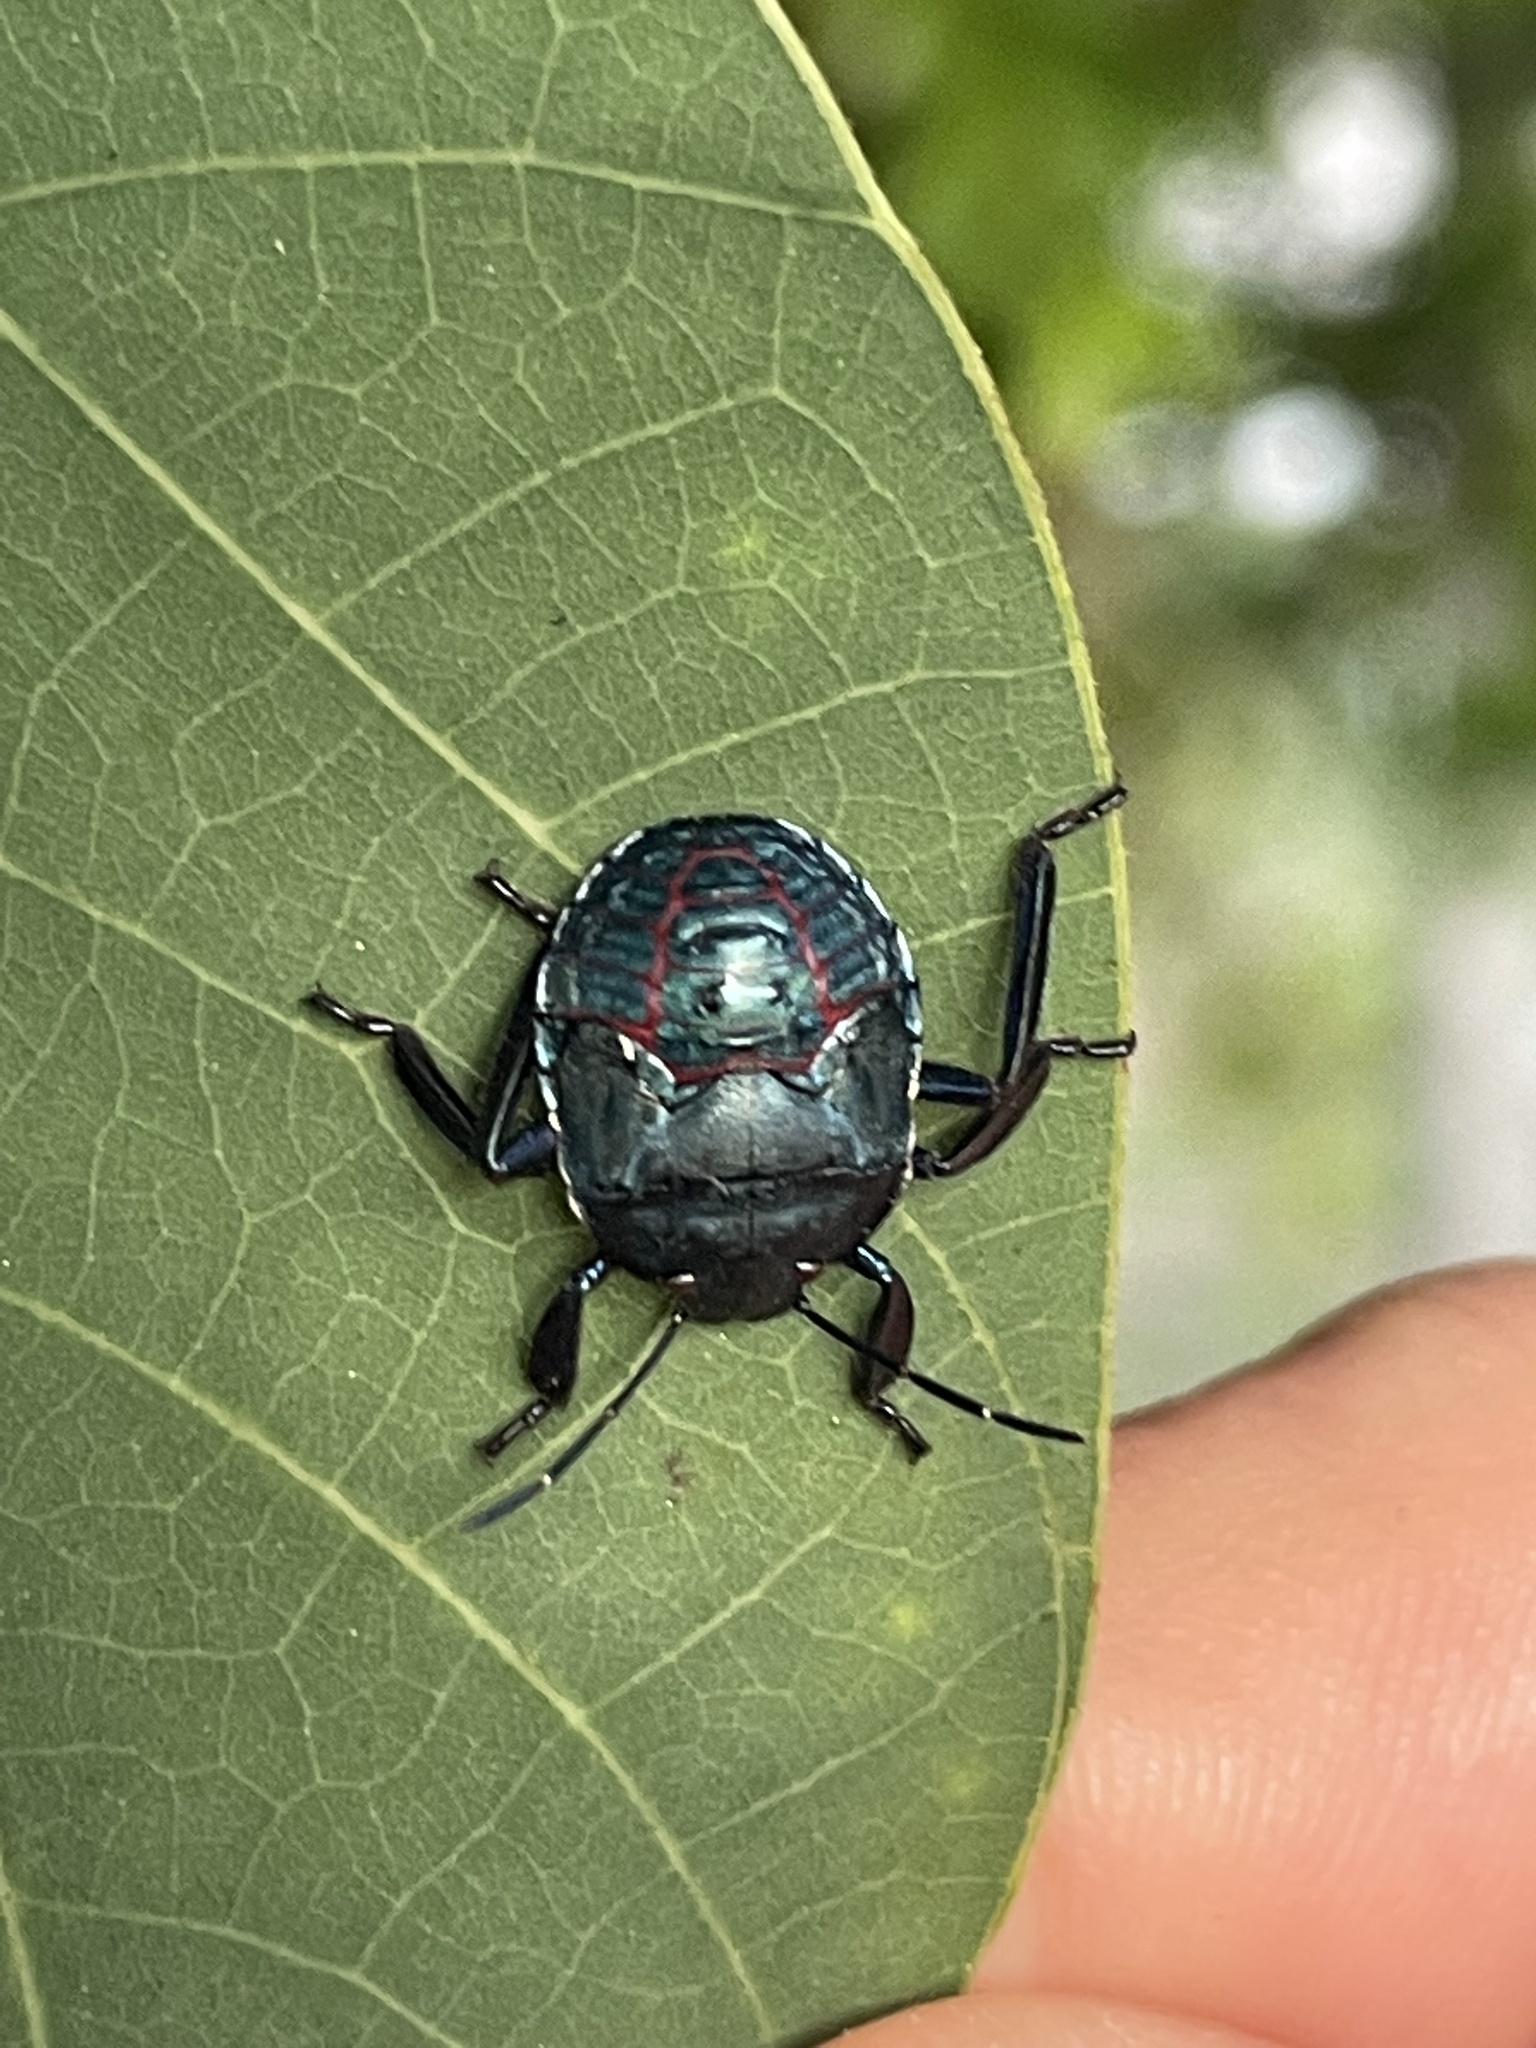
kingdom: Animalia
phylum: Arthropoda
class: Insecta
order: Hemiptera
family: Pentatomidae
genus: Pellaea
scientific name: Pellaea stictica
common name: Stink bug
